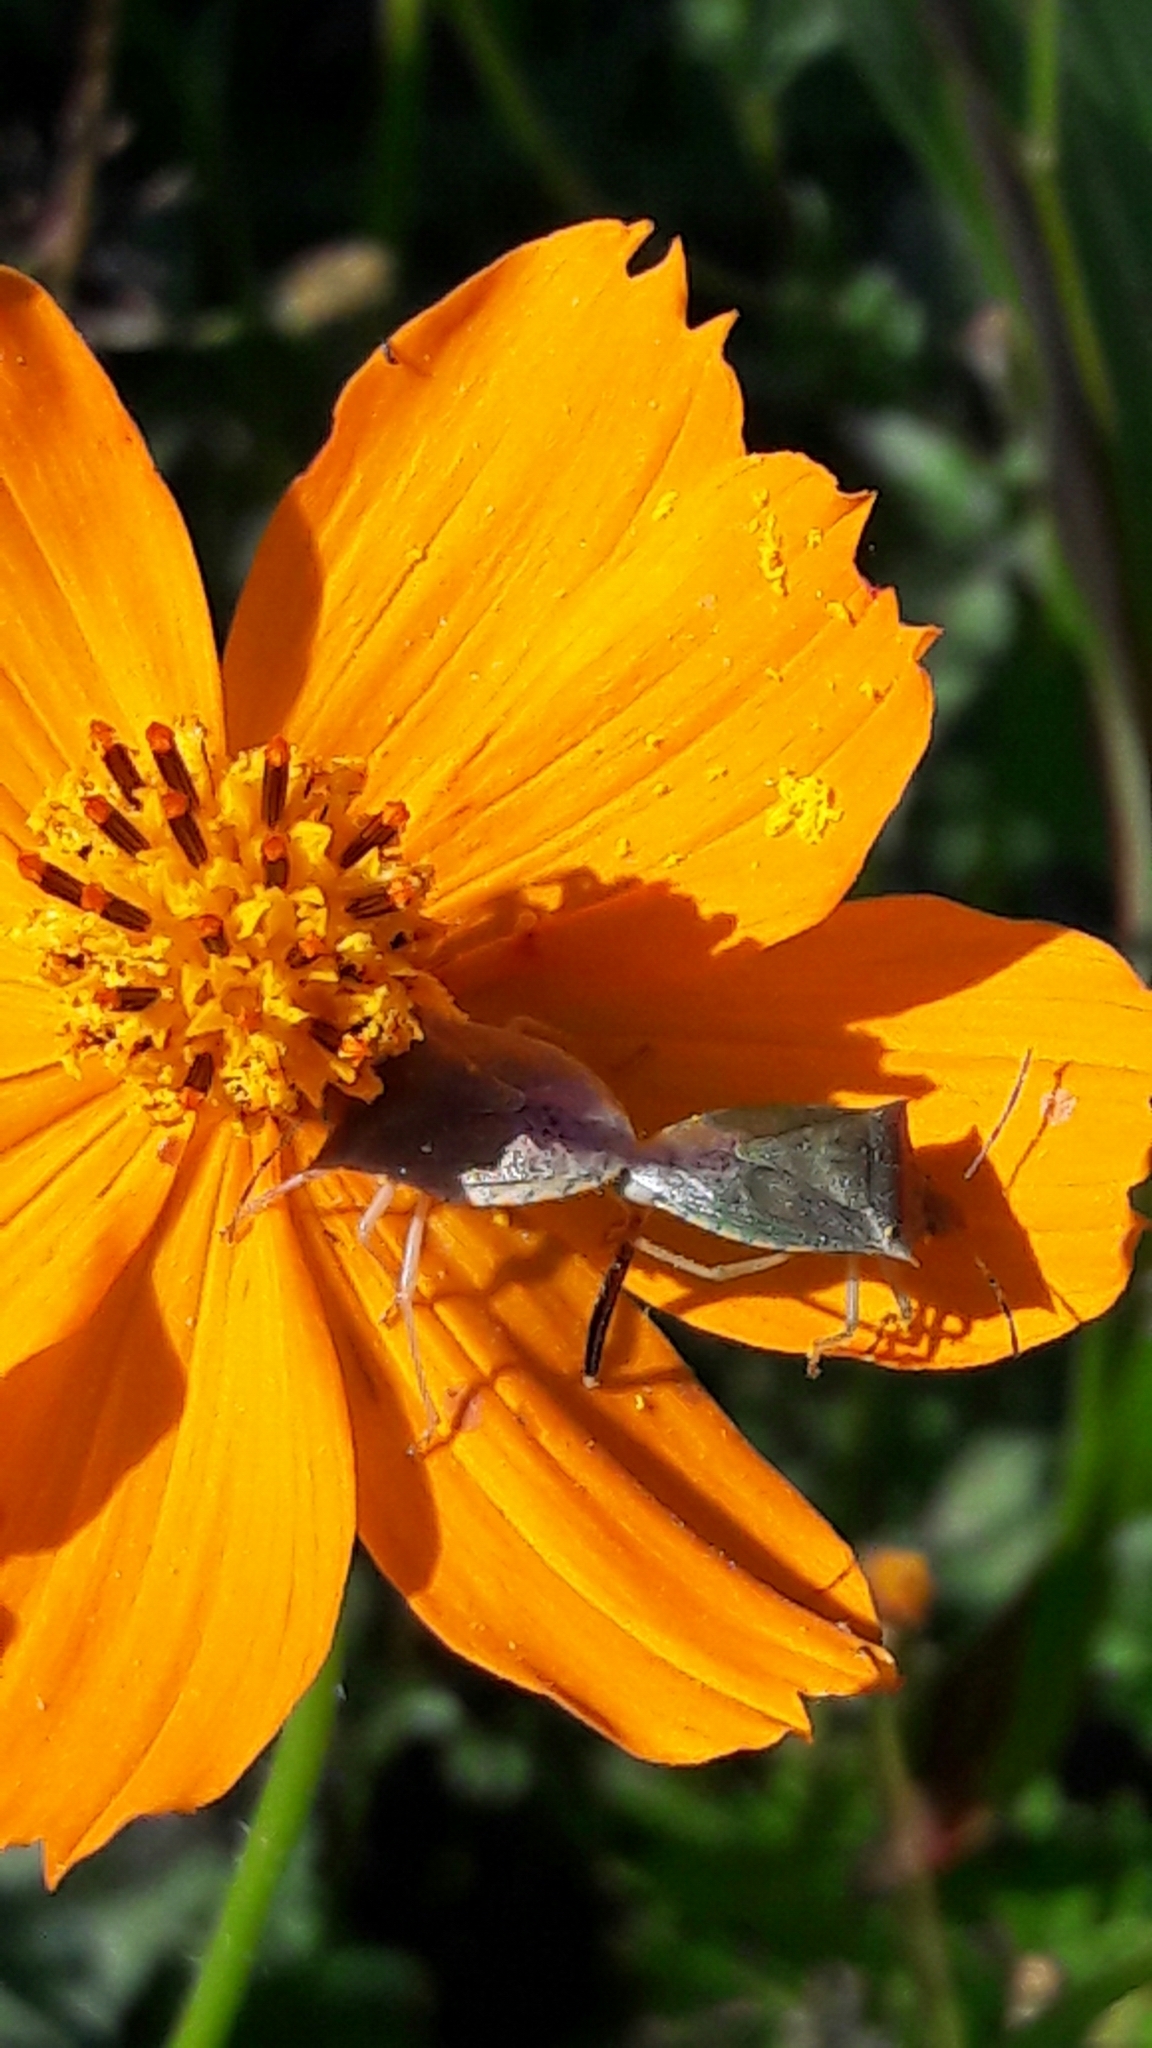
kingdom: Animalia
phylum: Arthropoda
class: Insecta
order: Hemiptera
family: Pentatomidae
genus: Thyanta
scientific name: Thyanta perditor
